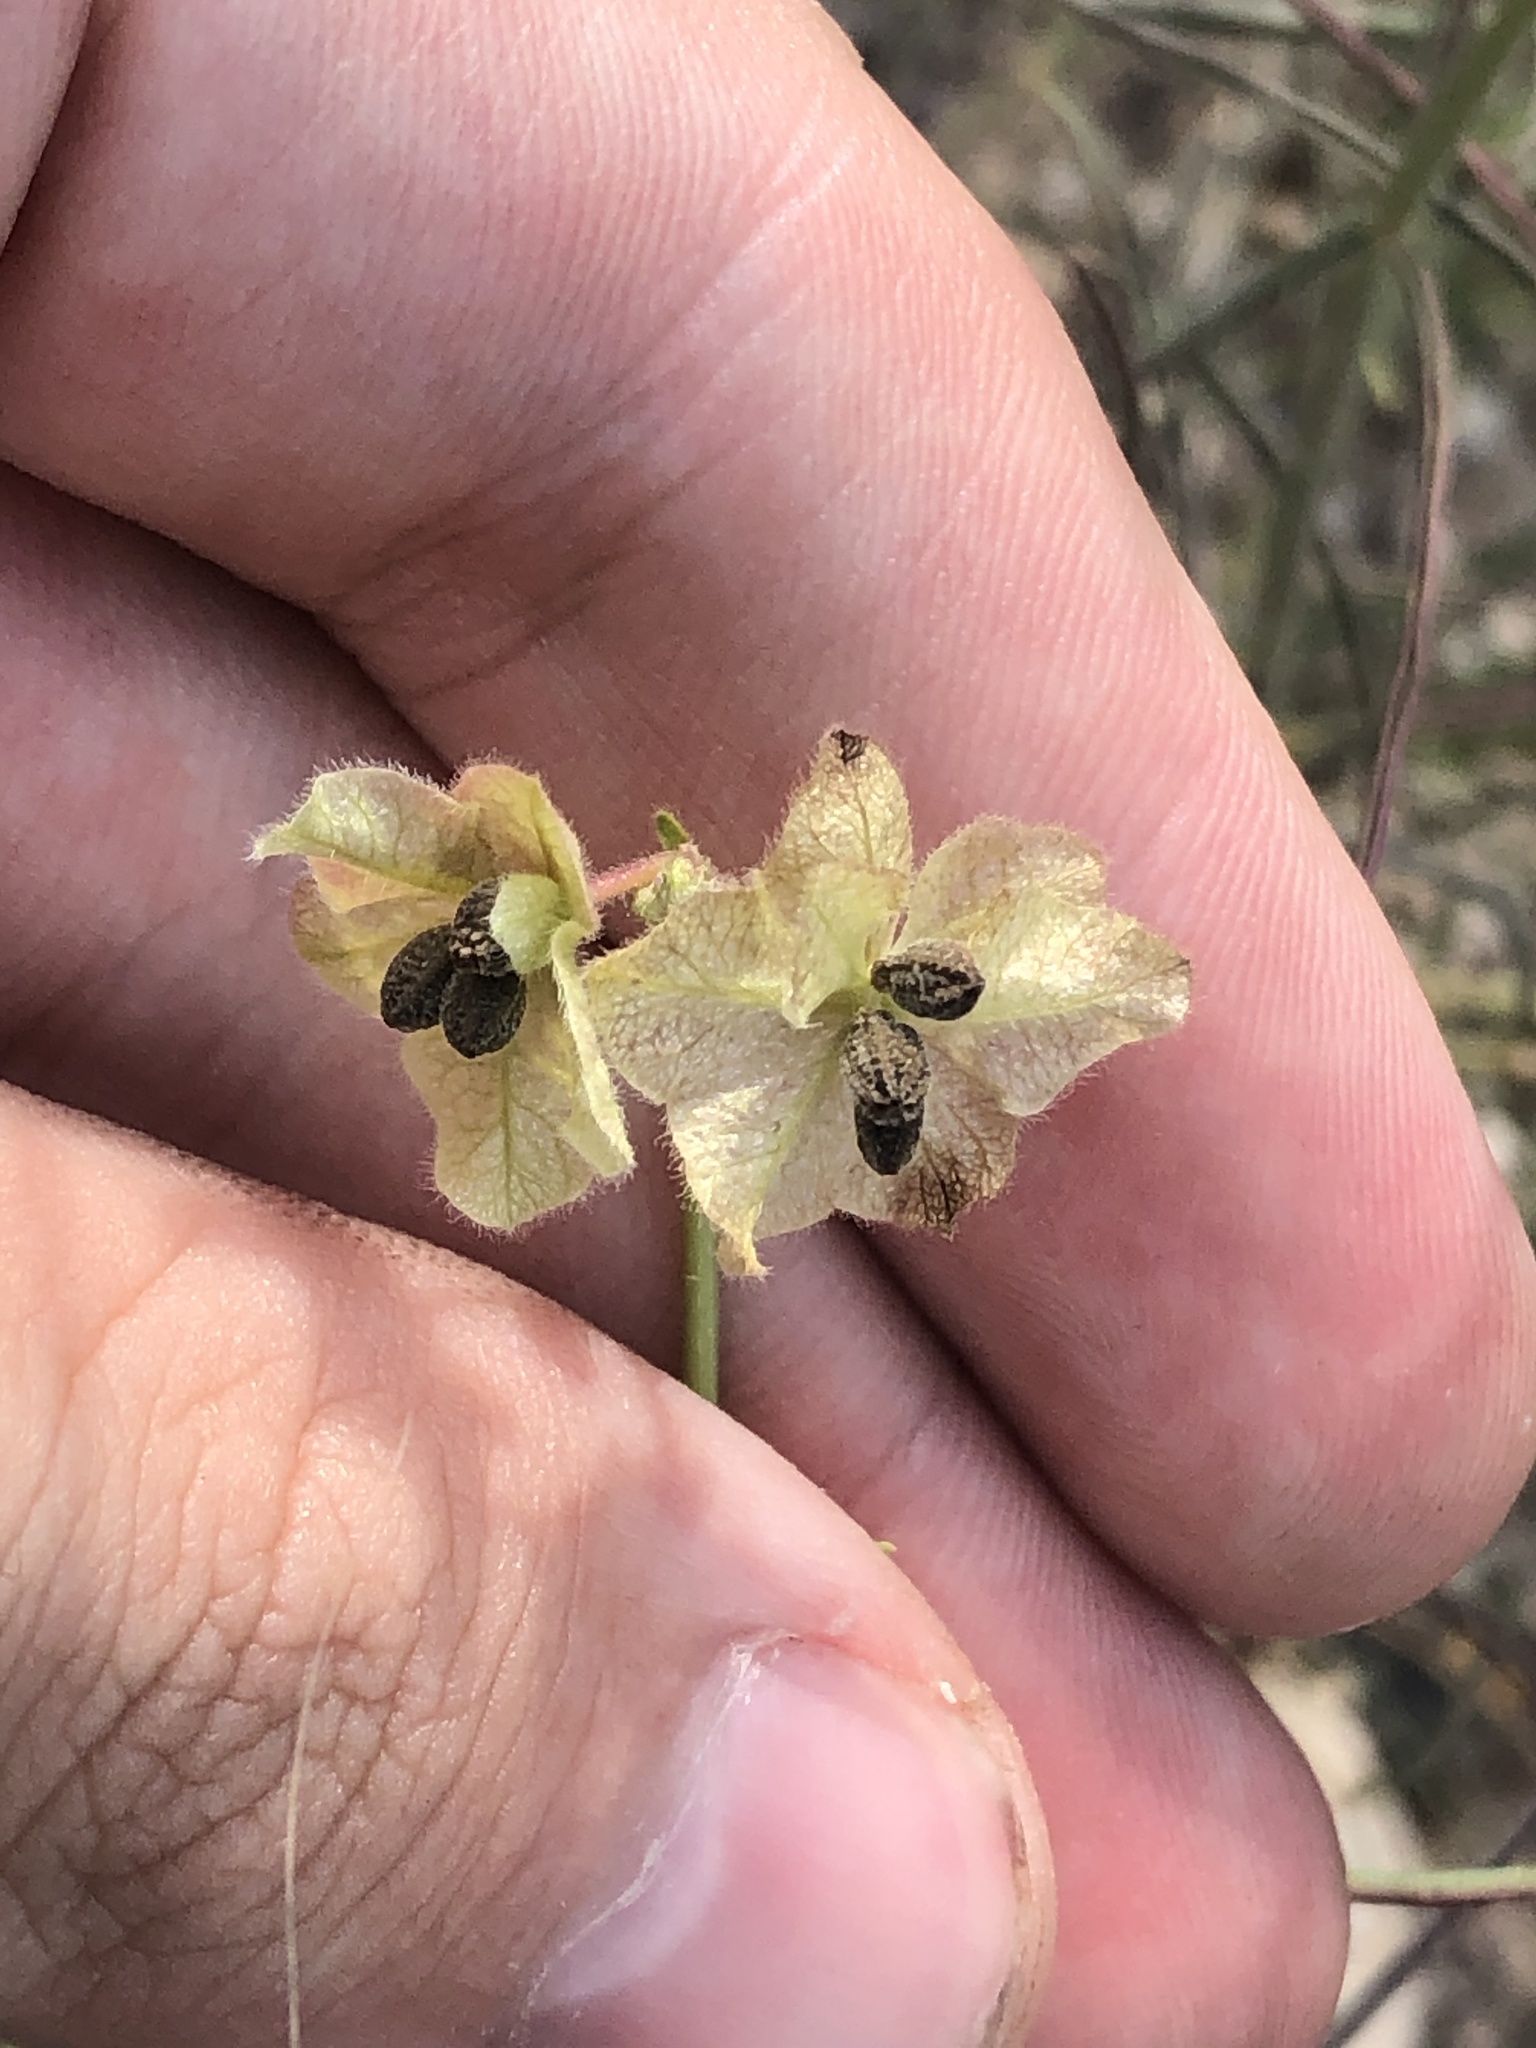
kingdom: Plantae
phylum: Tracheophyta
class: Magnoliopsida
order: Caryophyllales
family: Nyctaginaceae
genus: Mirabilis
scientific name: Mirabilis linearis
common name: Linear-leaved four-o'clock
